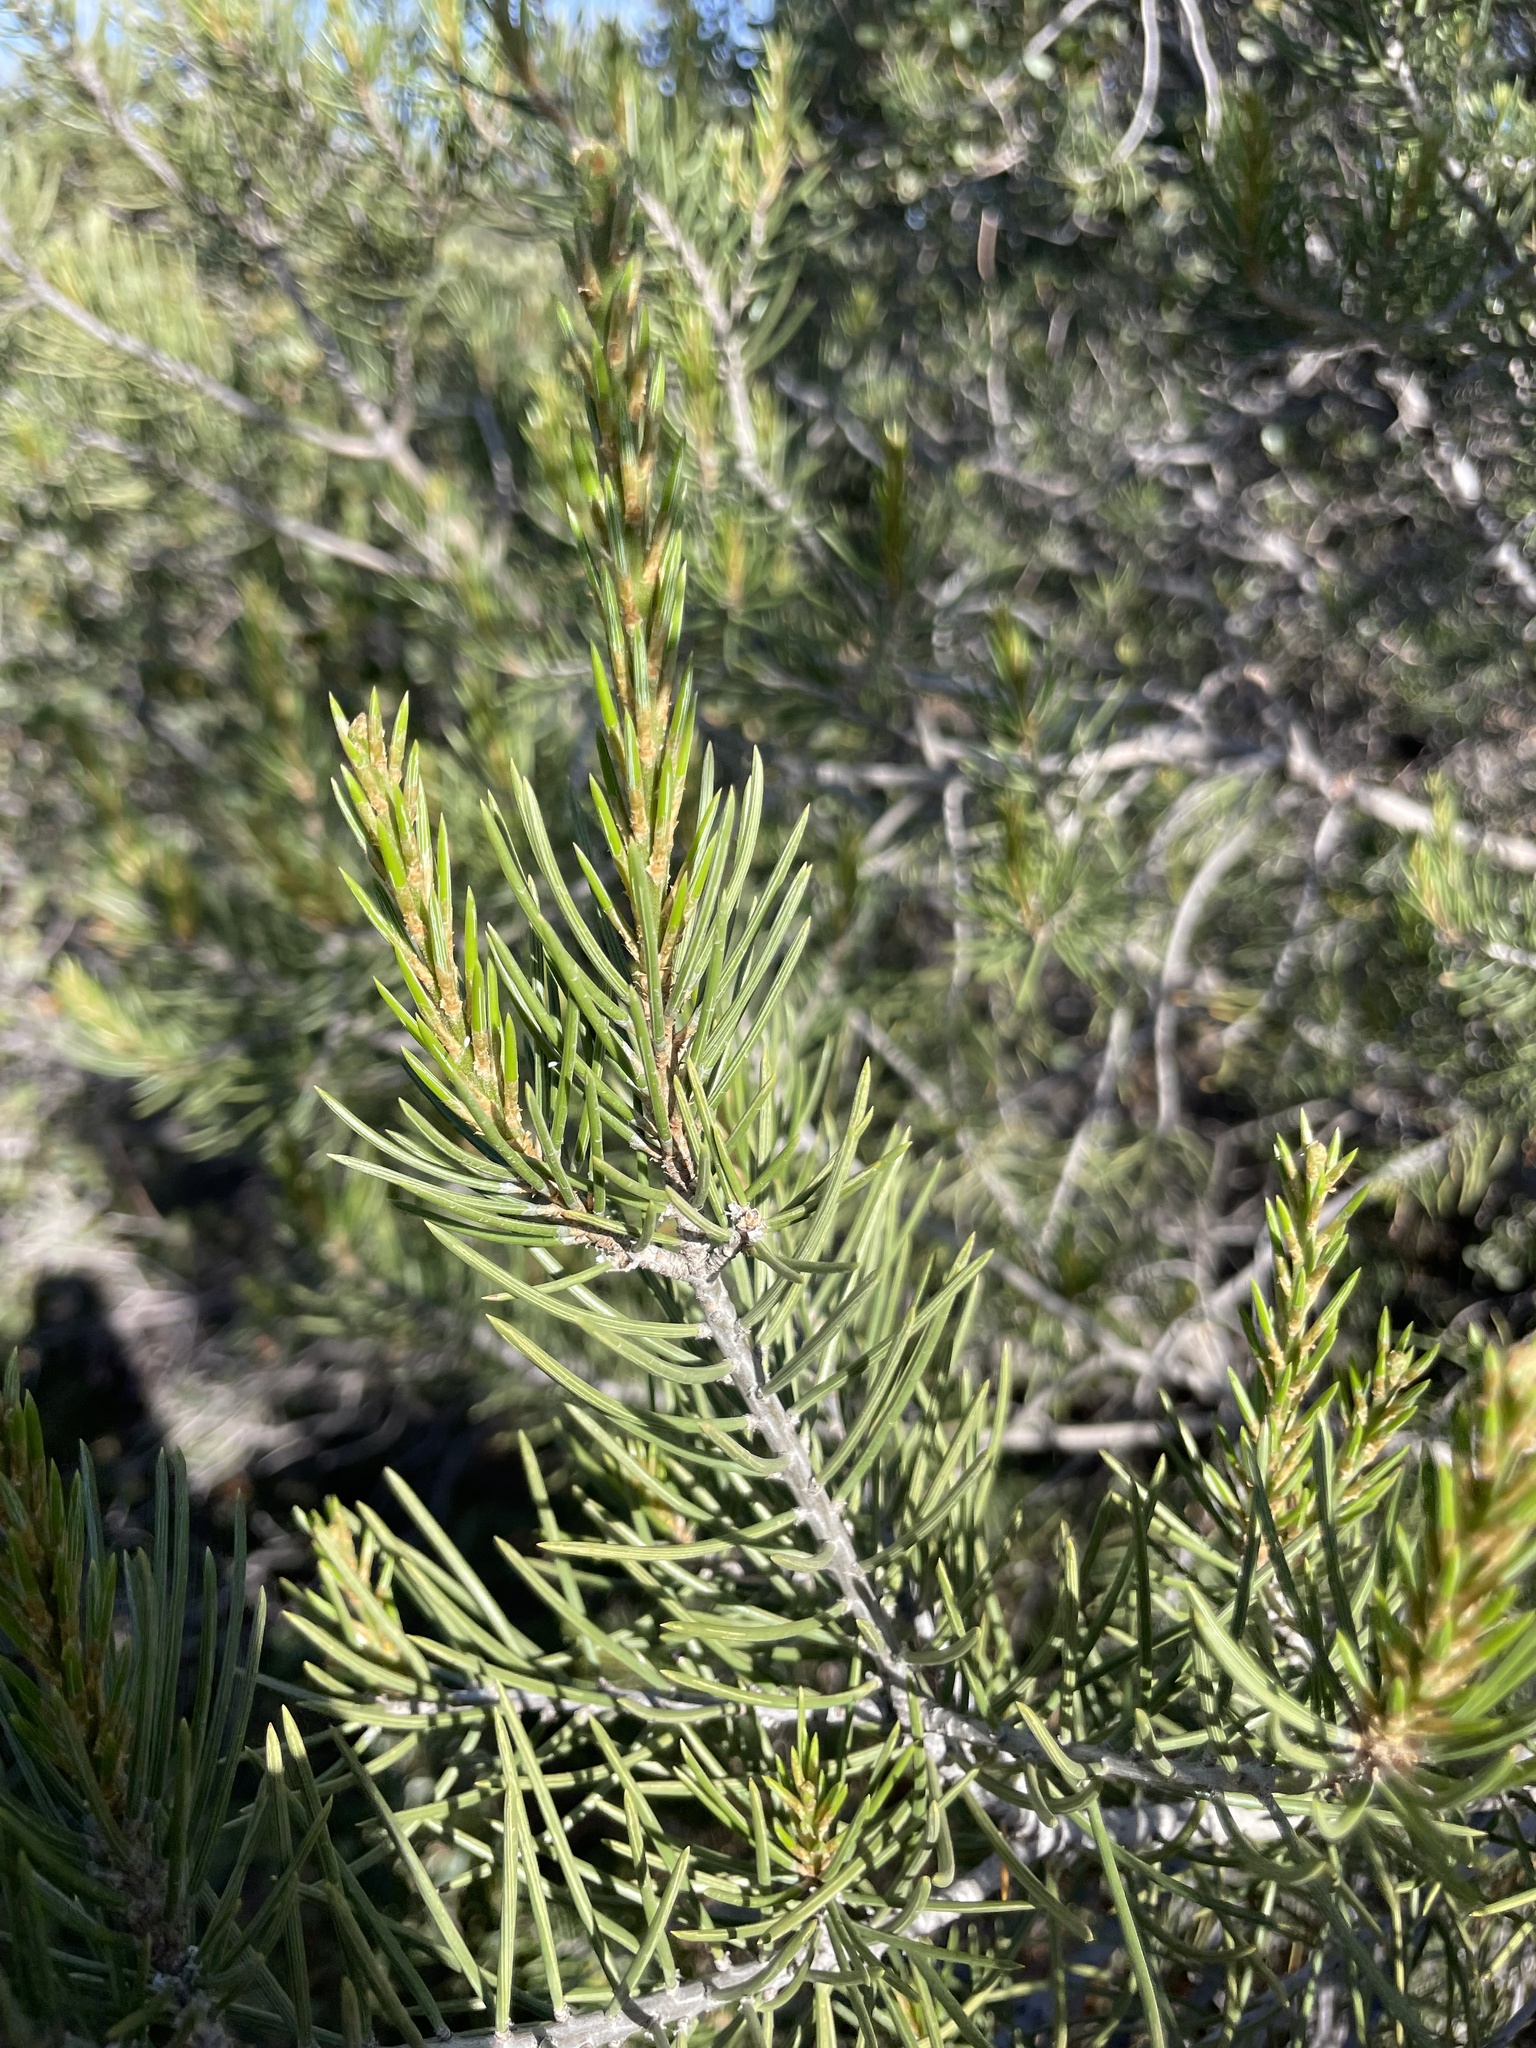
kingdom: Plantae
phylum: Tracheophyta
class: Pinopsida
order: Pinales
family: Pinaceae
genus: Pinus
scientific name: Pinus monophylla
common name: One-leaved nut pine
